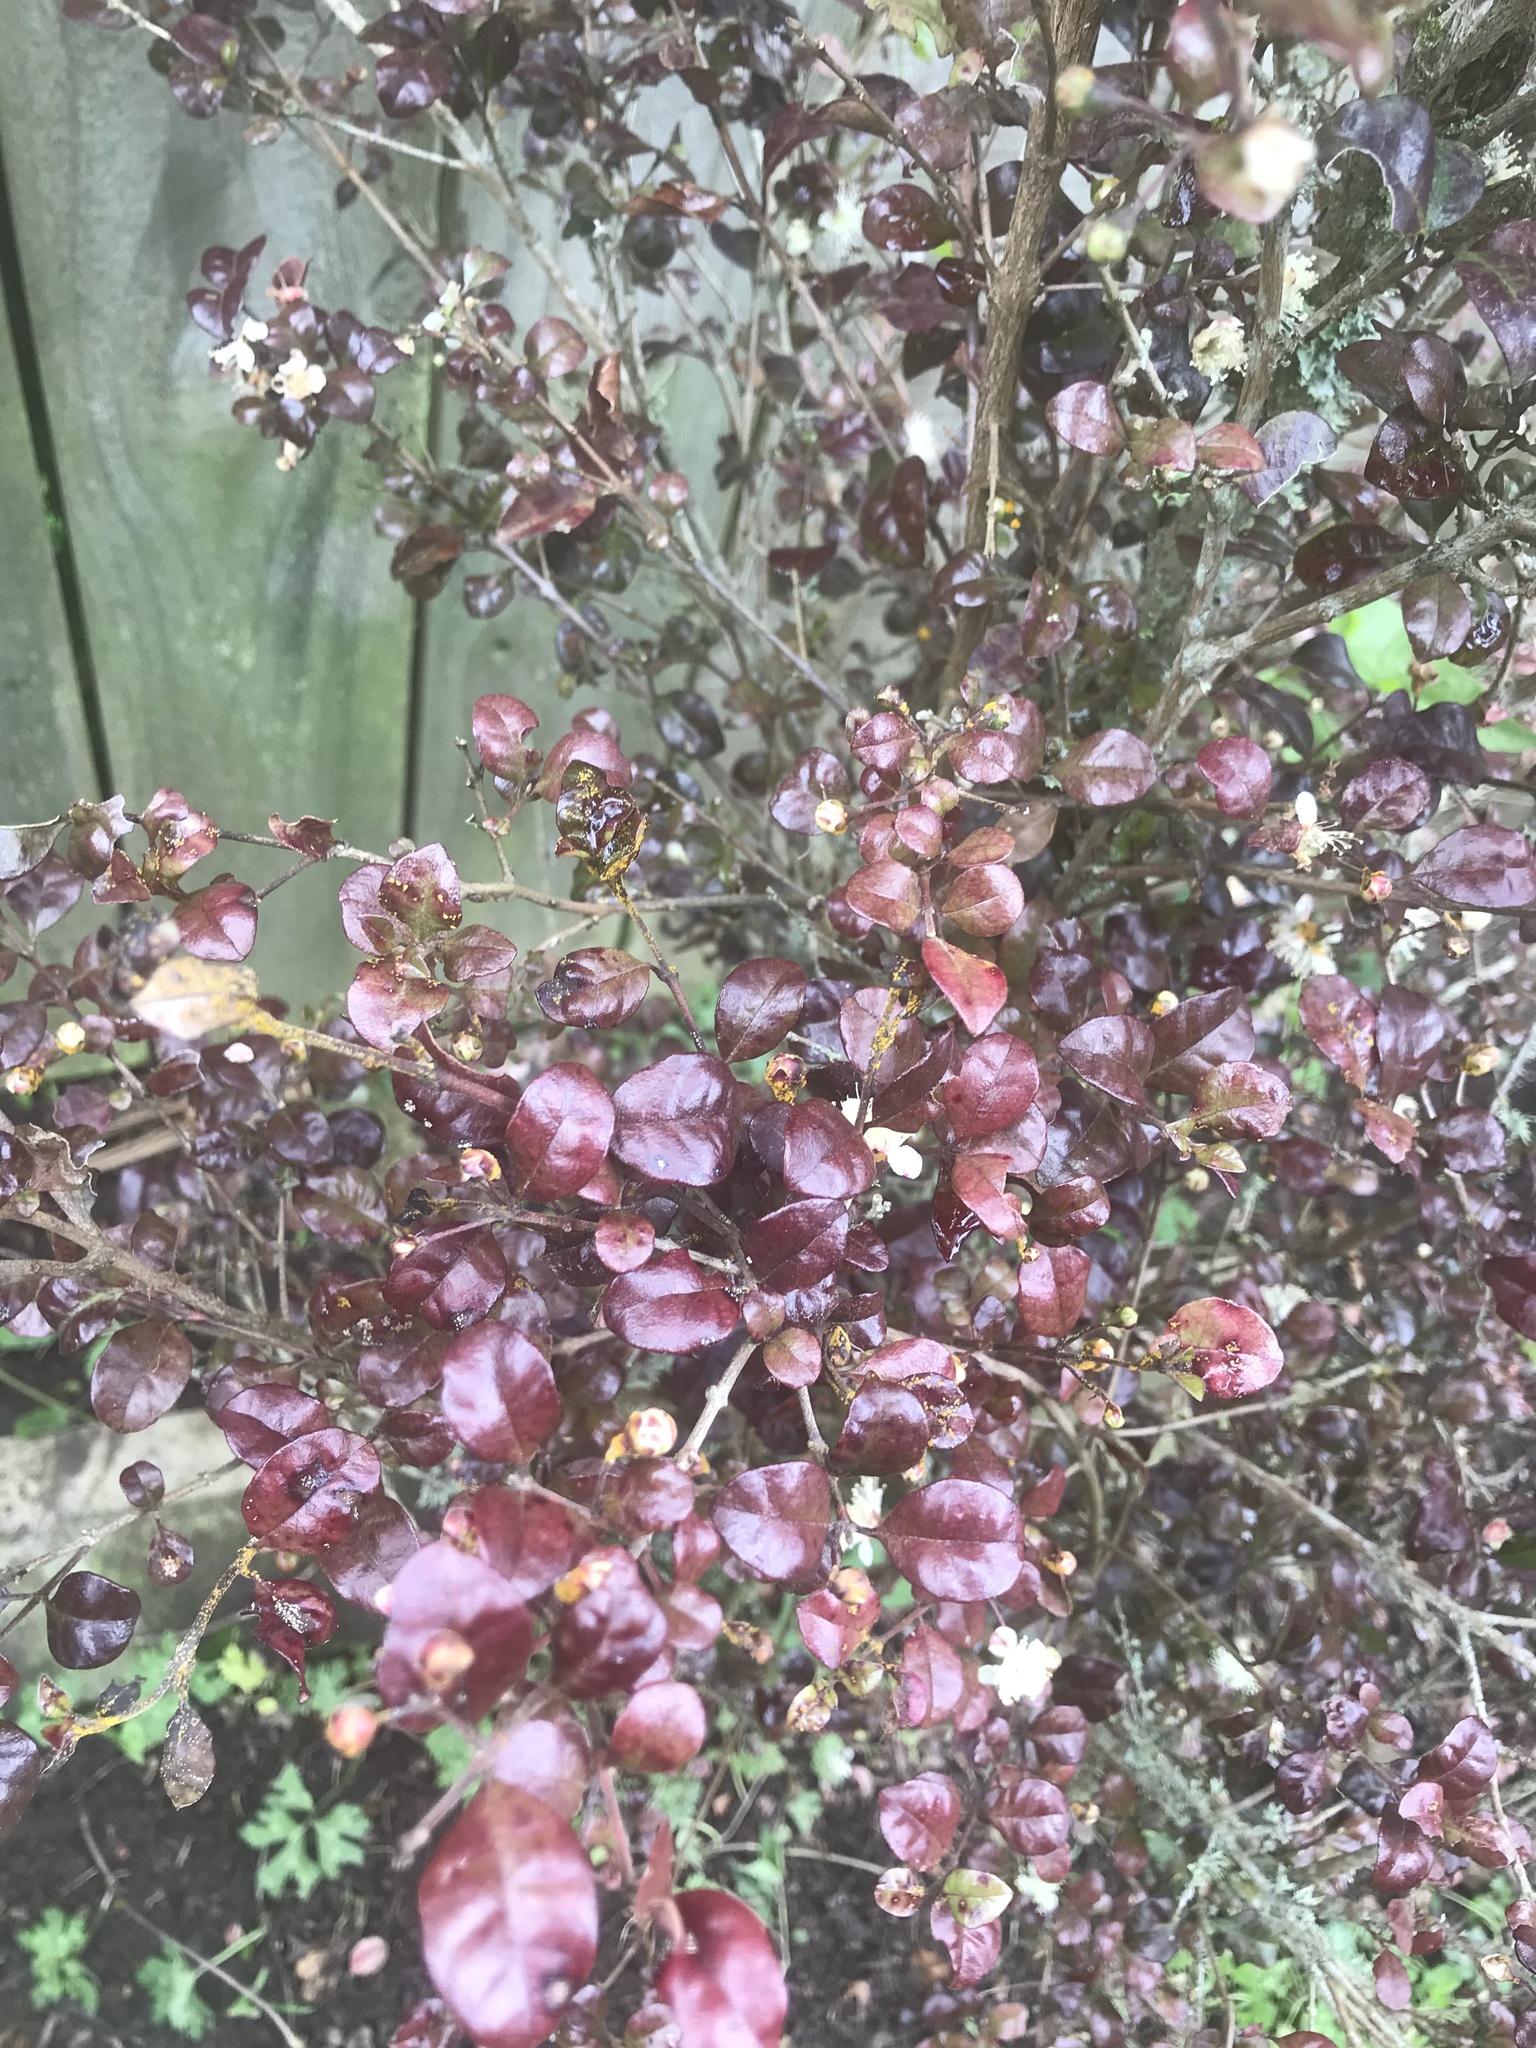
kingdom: Fungi
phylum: Basidiomycota
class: Pucciniomycetes
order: Pucciniales
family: Sphaerophragmiaceae
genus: Austropuccinia
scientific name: Austropuccinia psidii
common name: Myrtle rust
